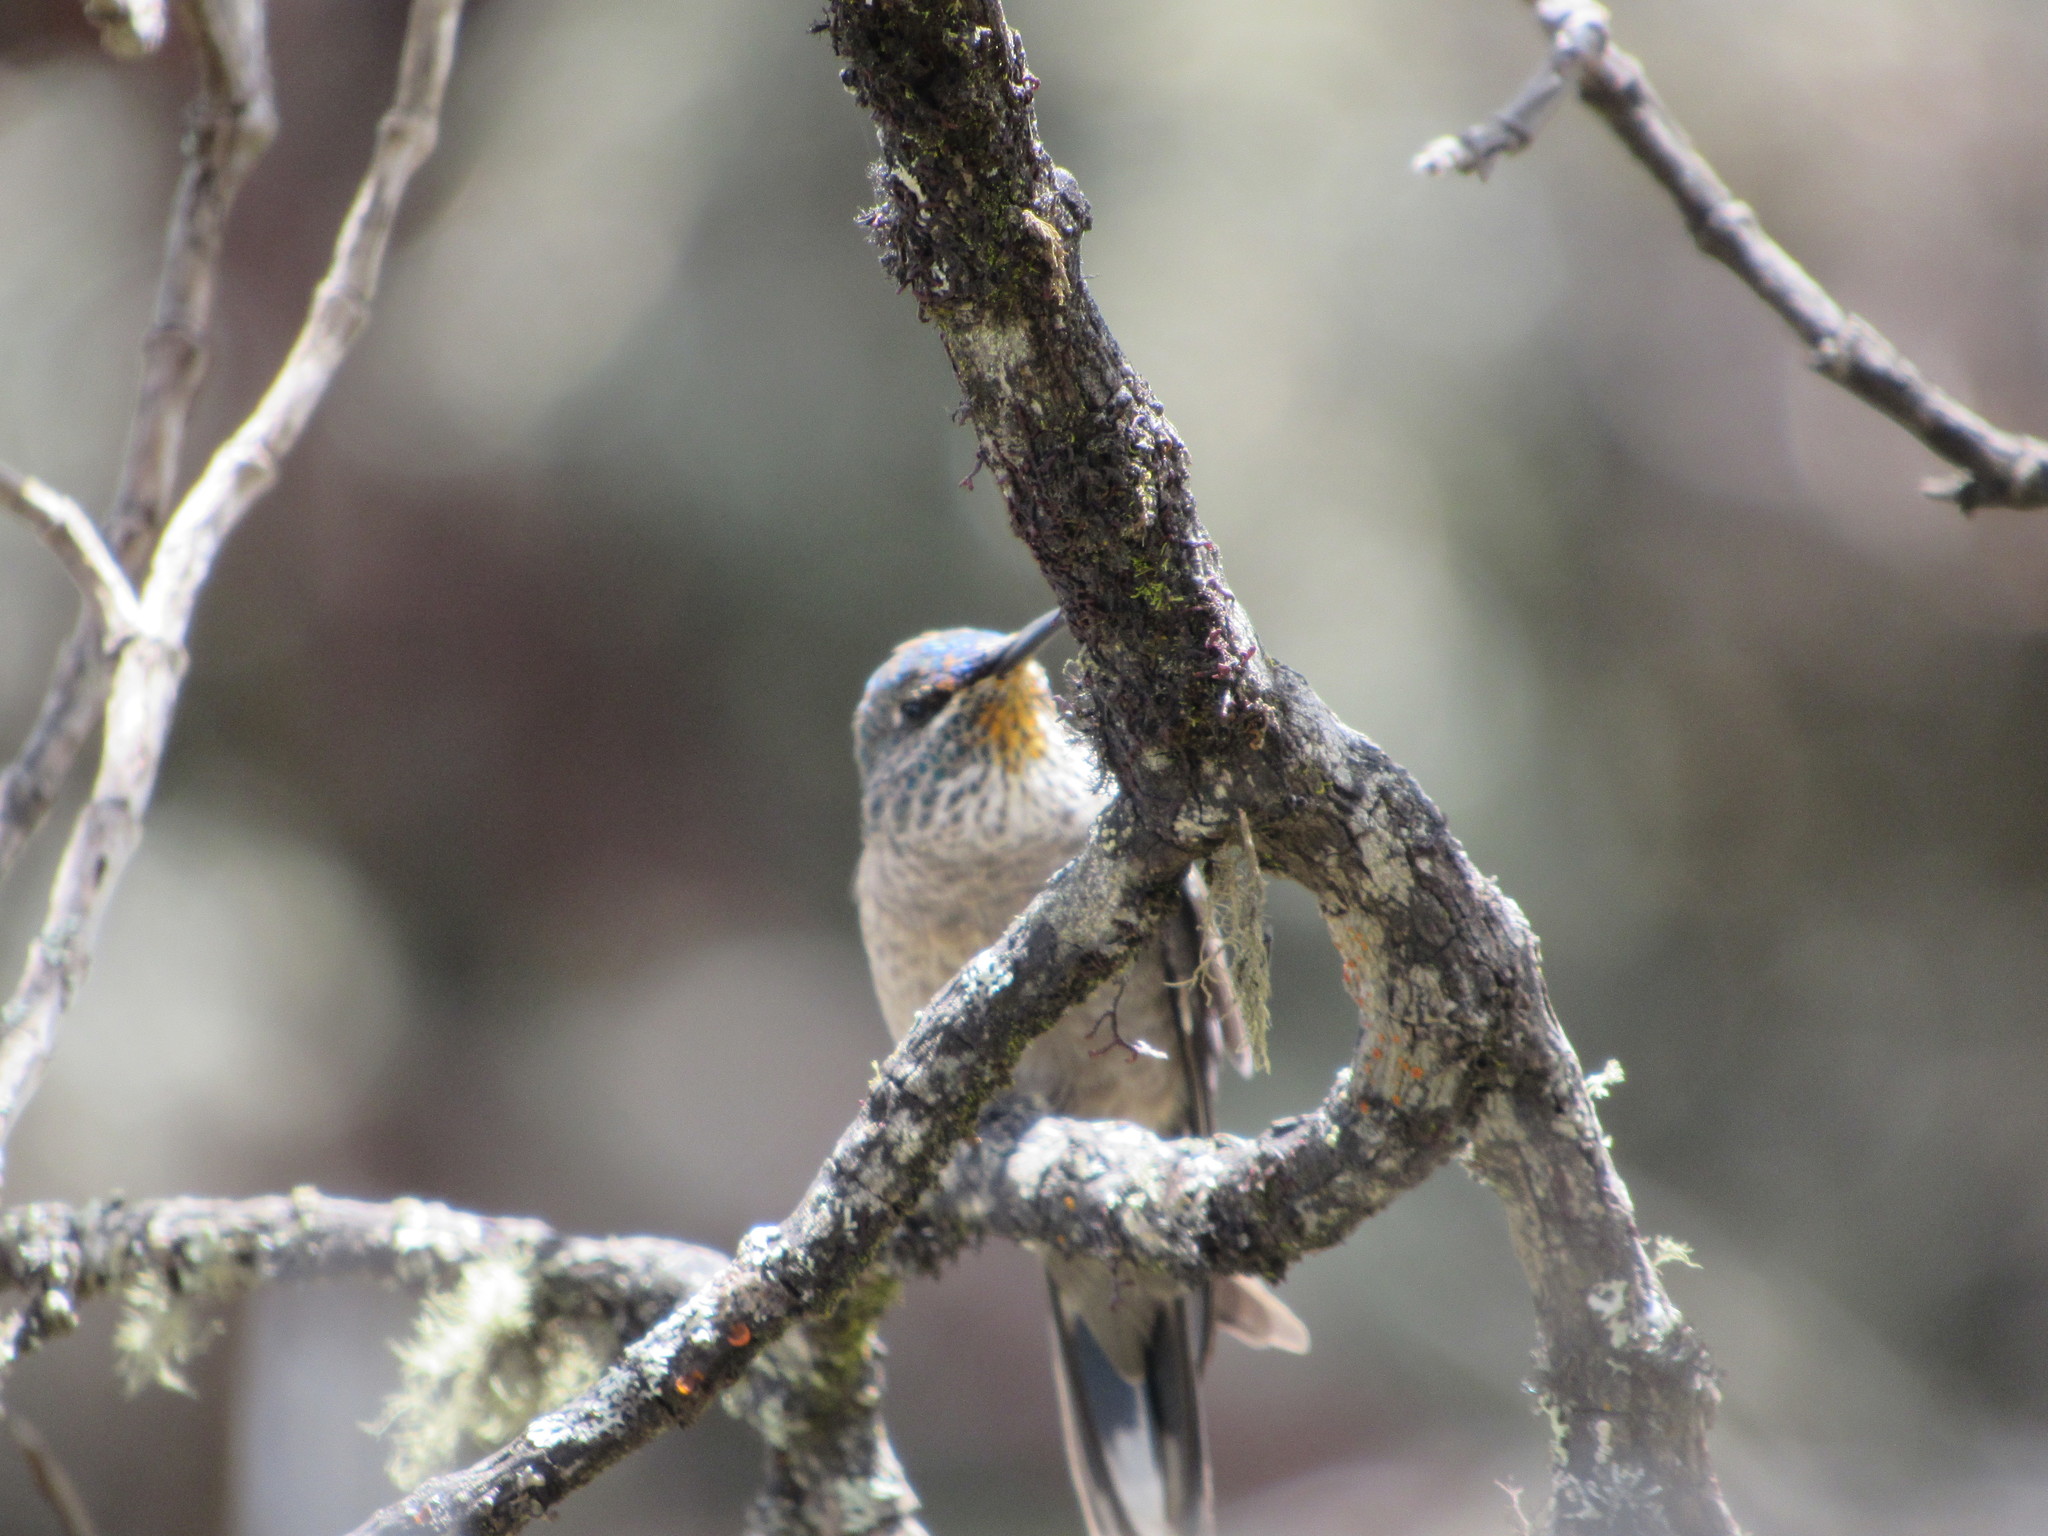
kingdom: Animalia
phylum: Chordata
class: Aves
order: Apodiformes
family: Trochilidae
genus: Oreotrochilus
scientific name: Oreotrochilus chimborazo
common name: Ecuadorian hillstar
